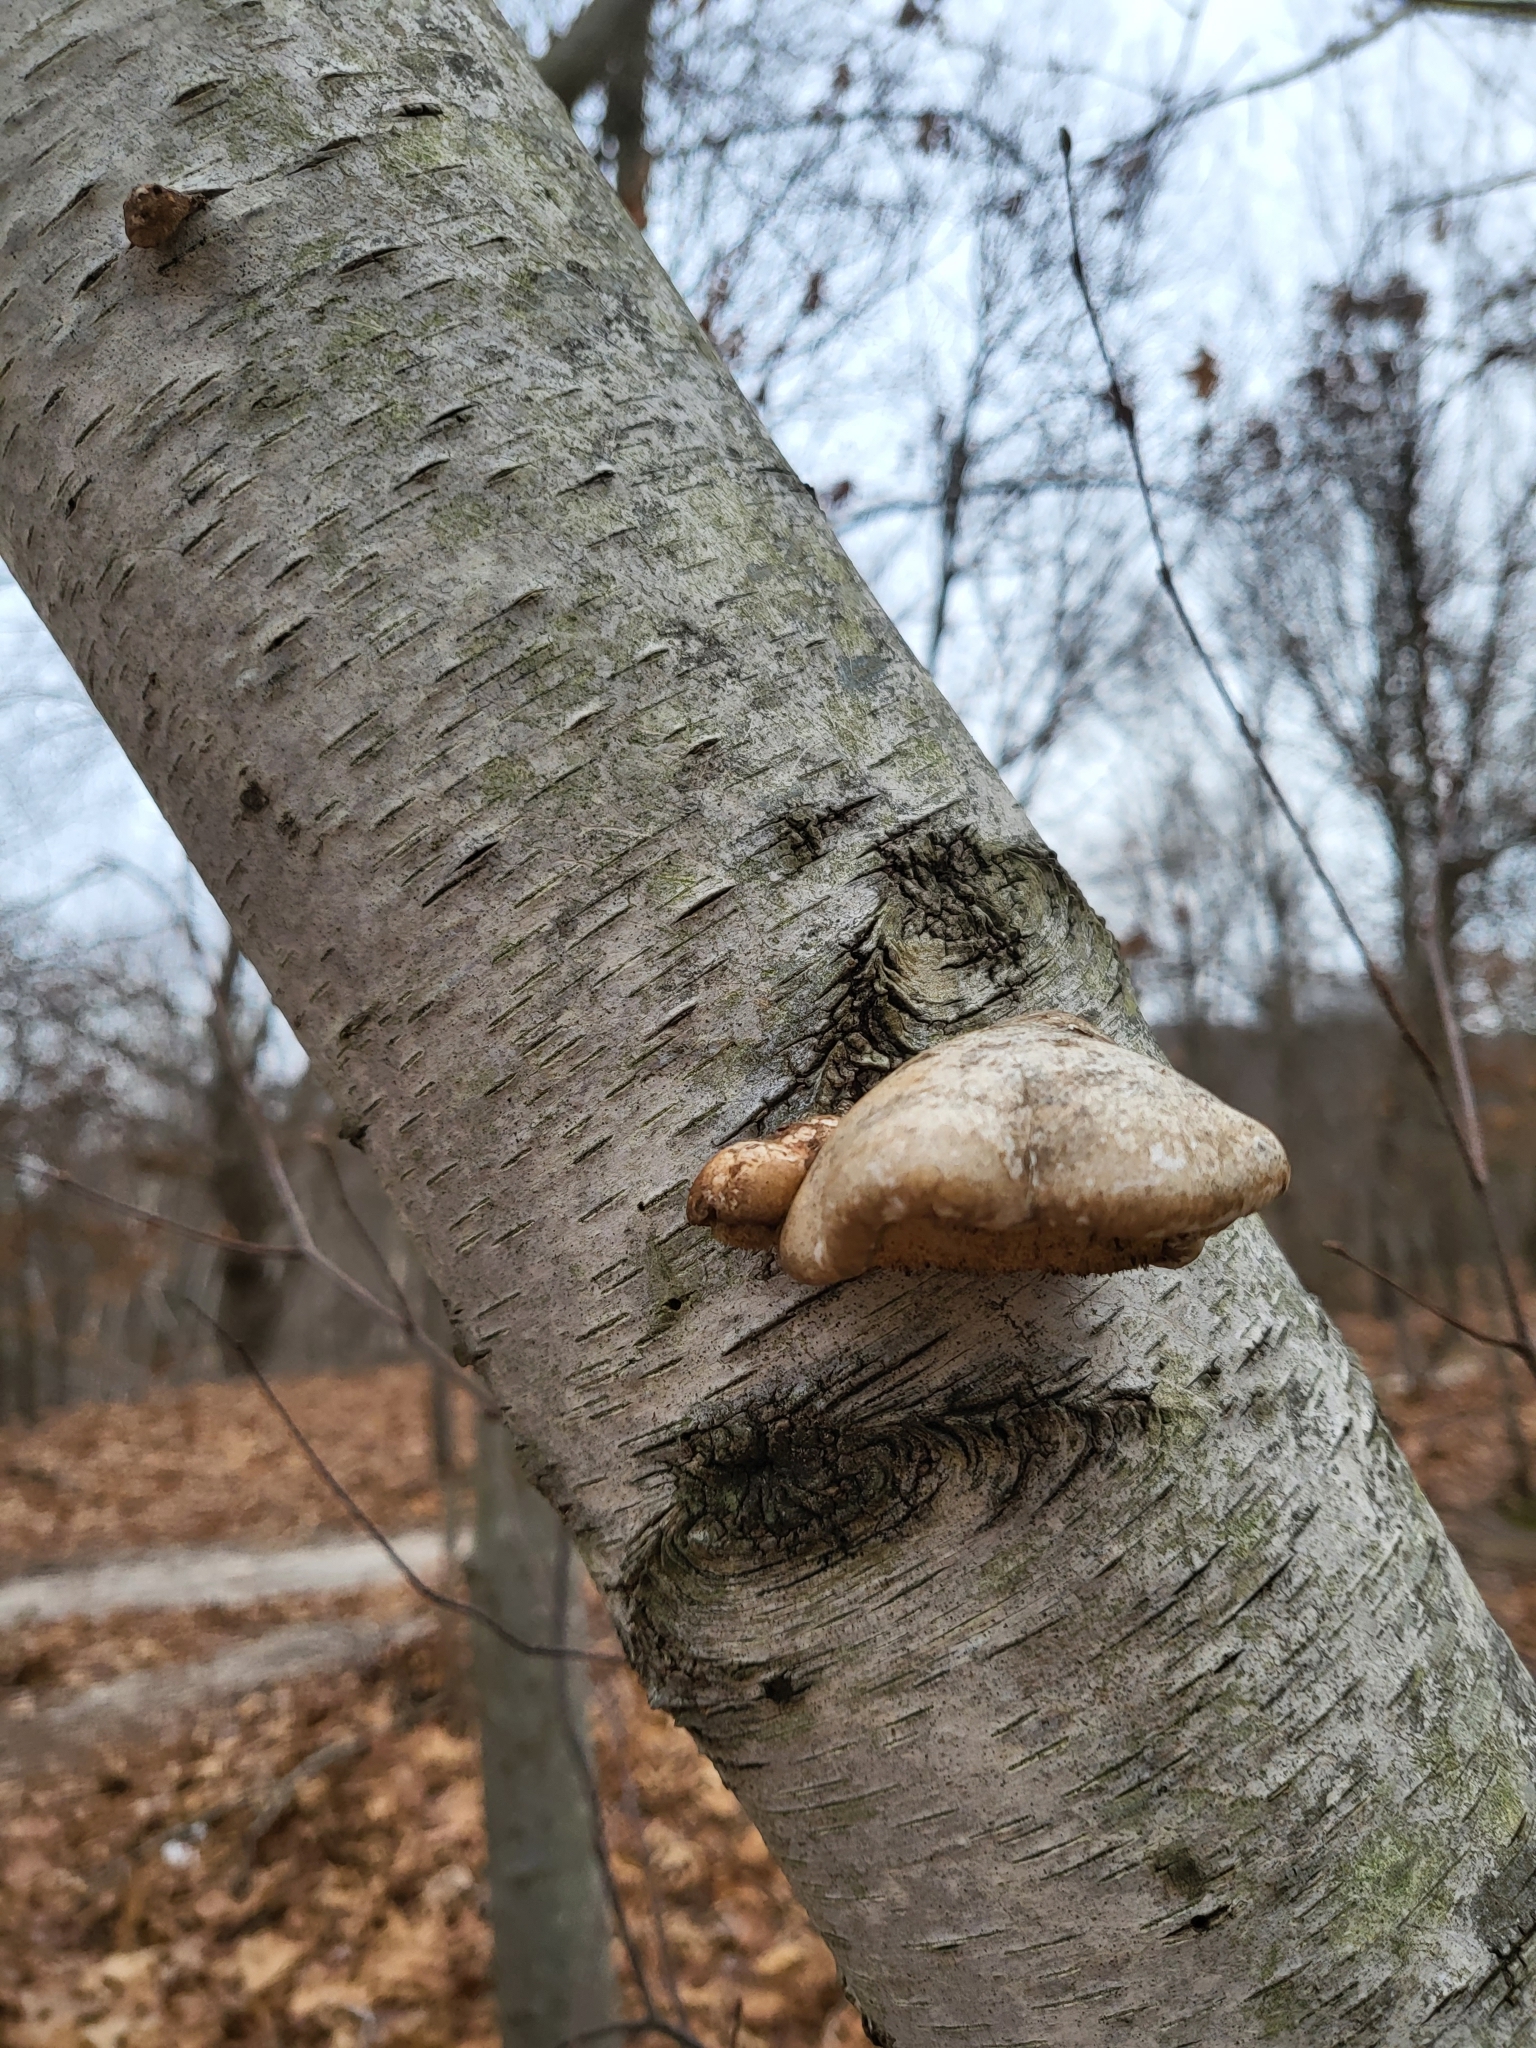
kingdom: Fungi
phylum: Basidiomycota
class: Agaricomycetes
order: Polyporales
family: Fomitopsidaceae
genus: Fomitopsis
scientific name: Fomitopsis betulina
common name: Birch polypore
